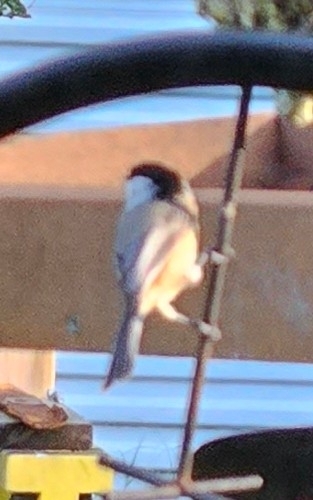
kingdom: Animalia
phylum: Chordata
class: Aves
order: Passeriformes
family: Paridae
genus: Poecile
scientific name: Poecile carolinensis
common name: Carolina chickadee
